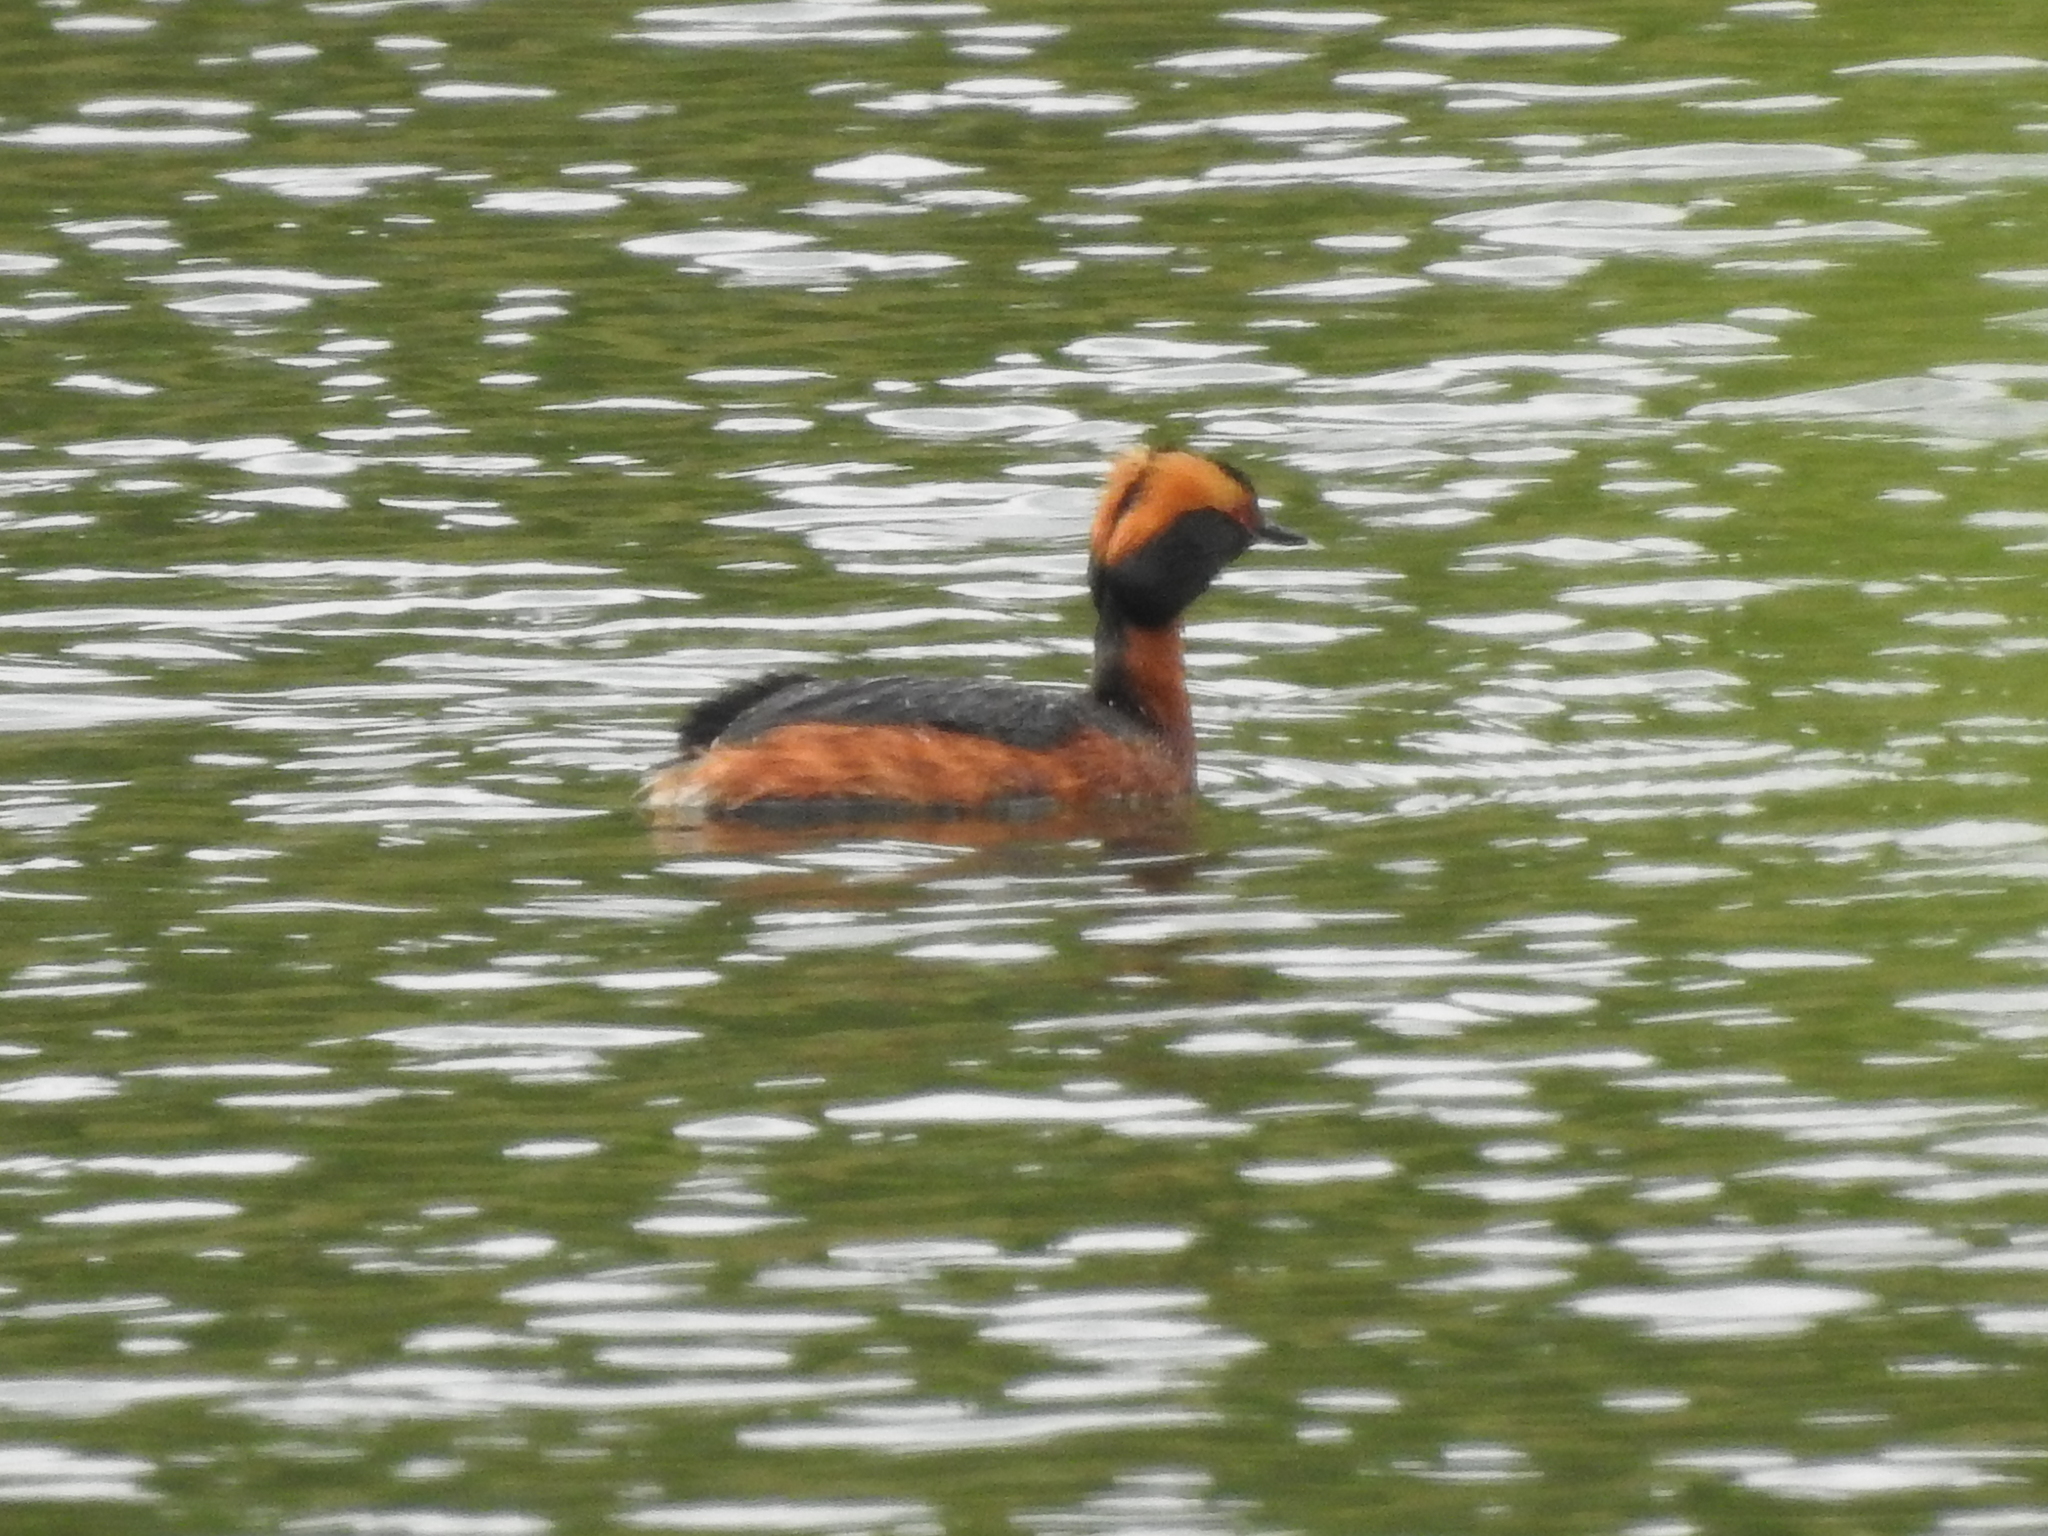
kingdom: Animalia
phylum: Chordata
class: Aves
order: Podicipediformes
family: Podicipedidae
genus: Podiceps
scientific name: Podiceps auritus
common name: Horned grebe
